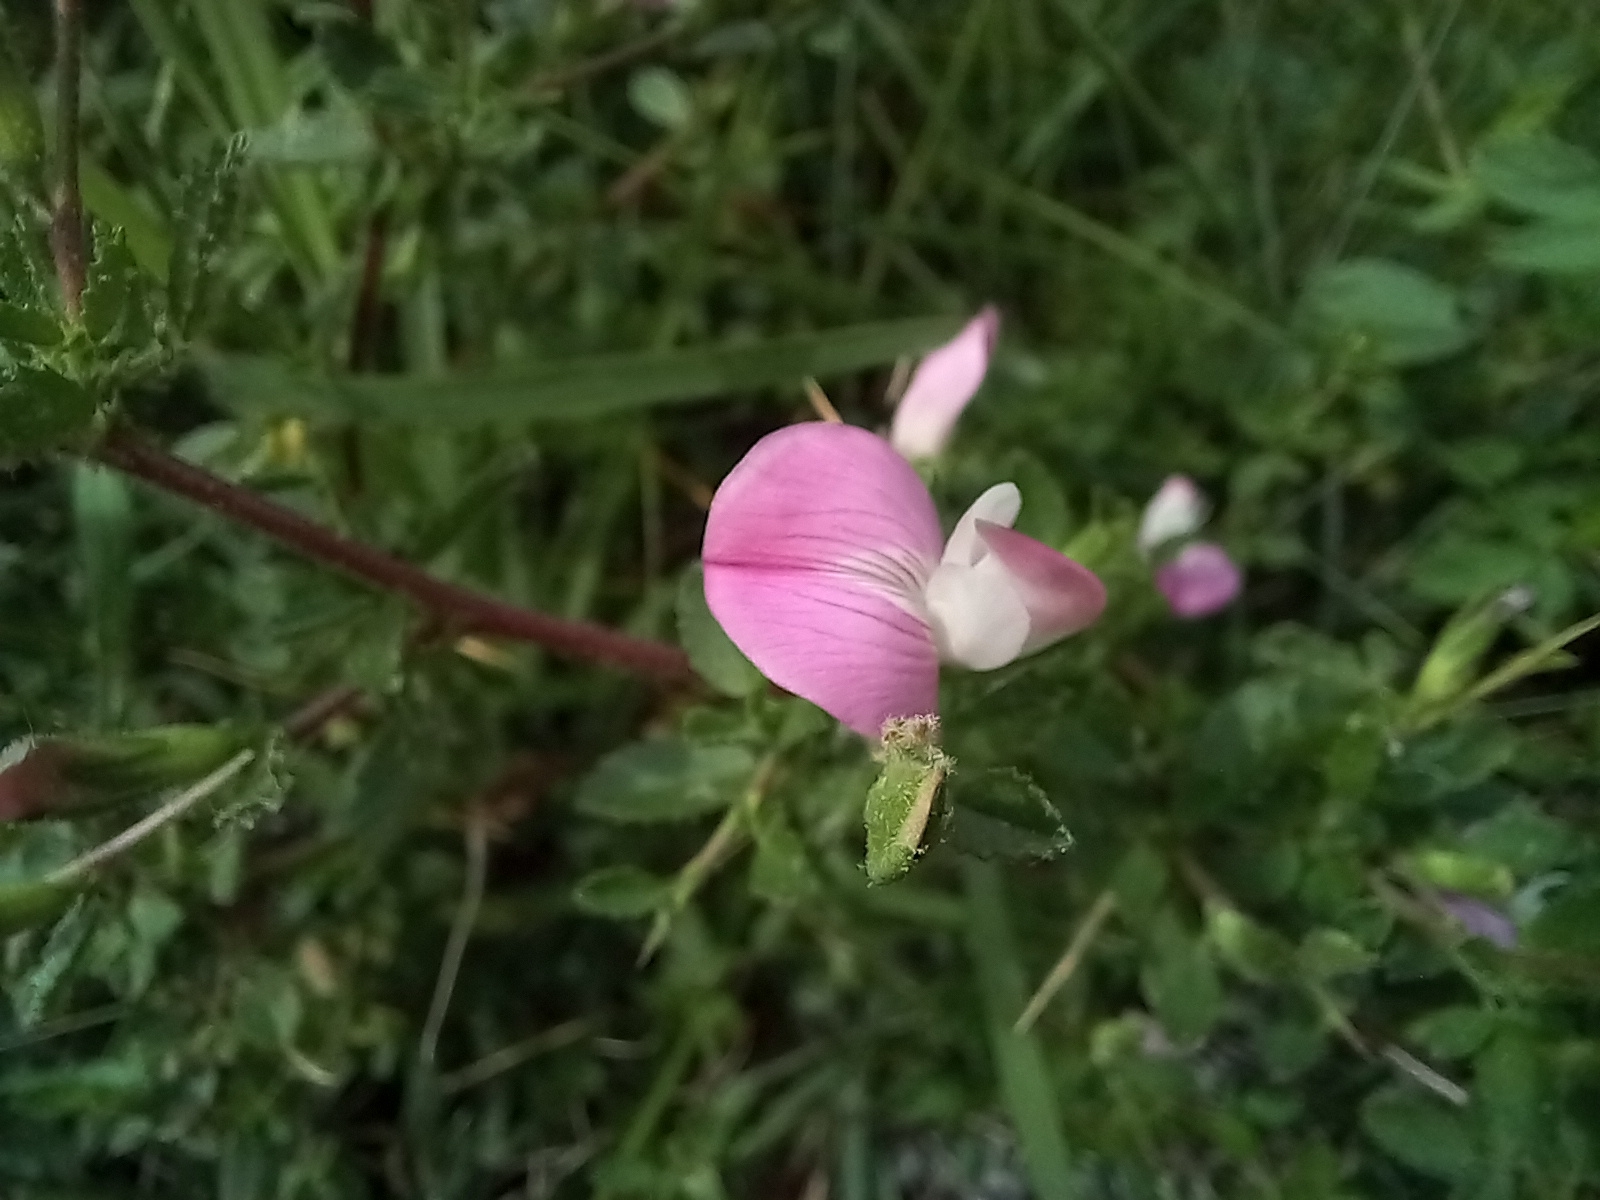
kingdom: Plantae
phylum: Tracheophyta
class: Magnoliopsida
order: Fabales
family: Fabaceae
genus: Ononis
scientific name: Ononis spinosa
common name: Spiny restharrow
